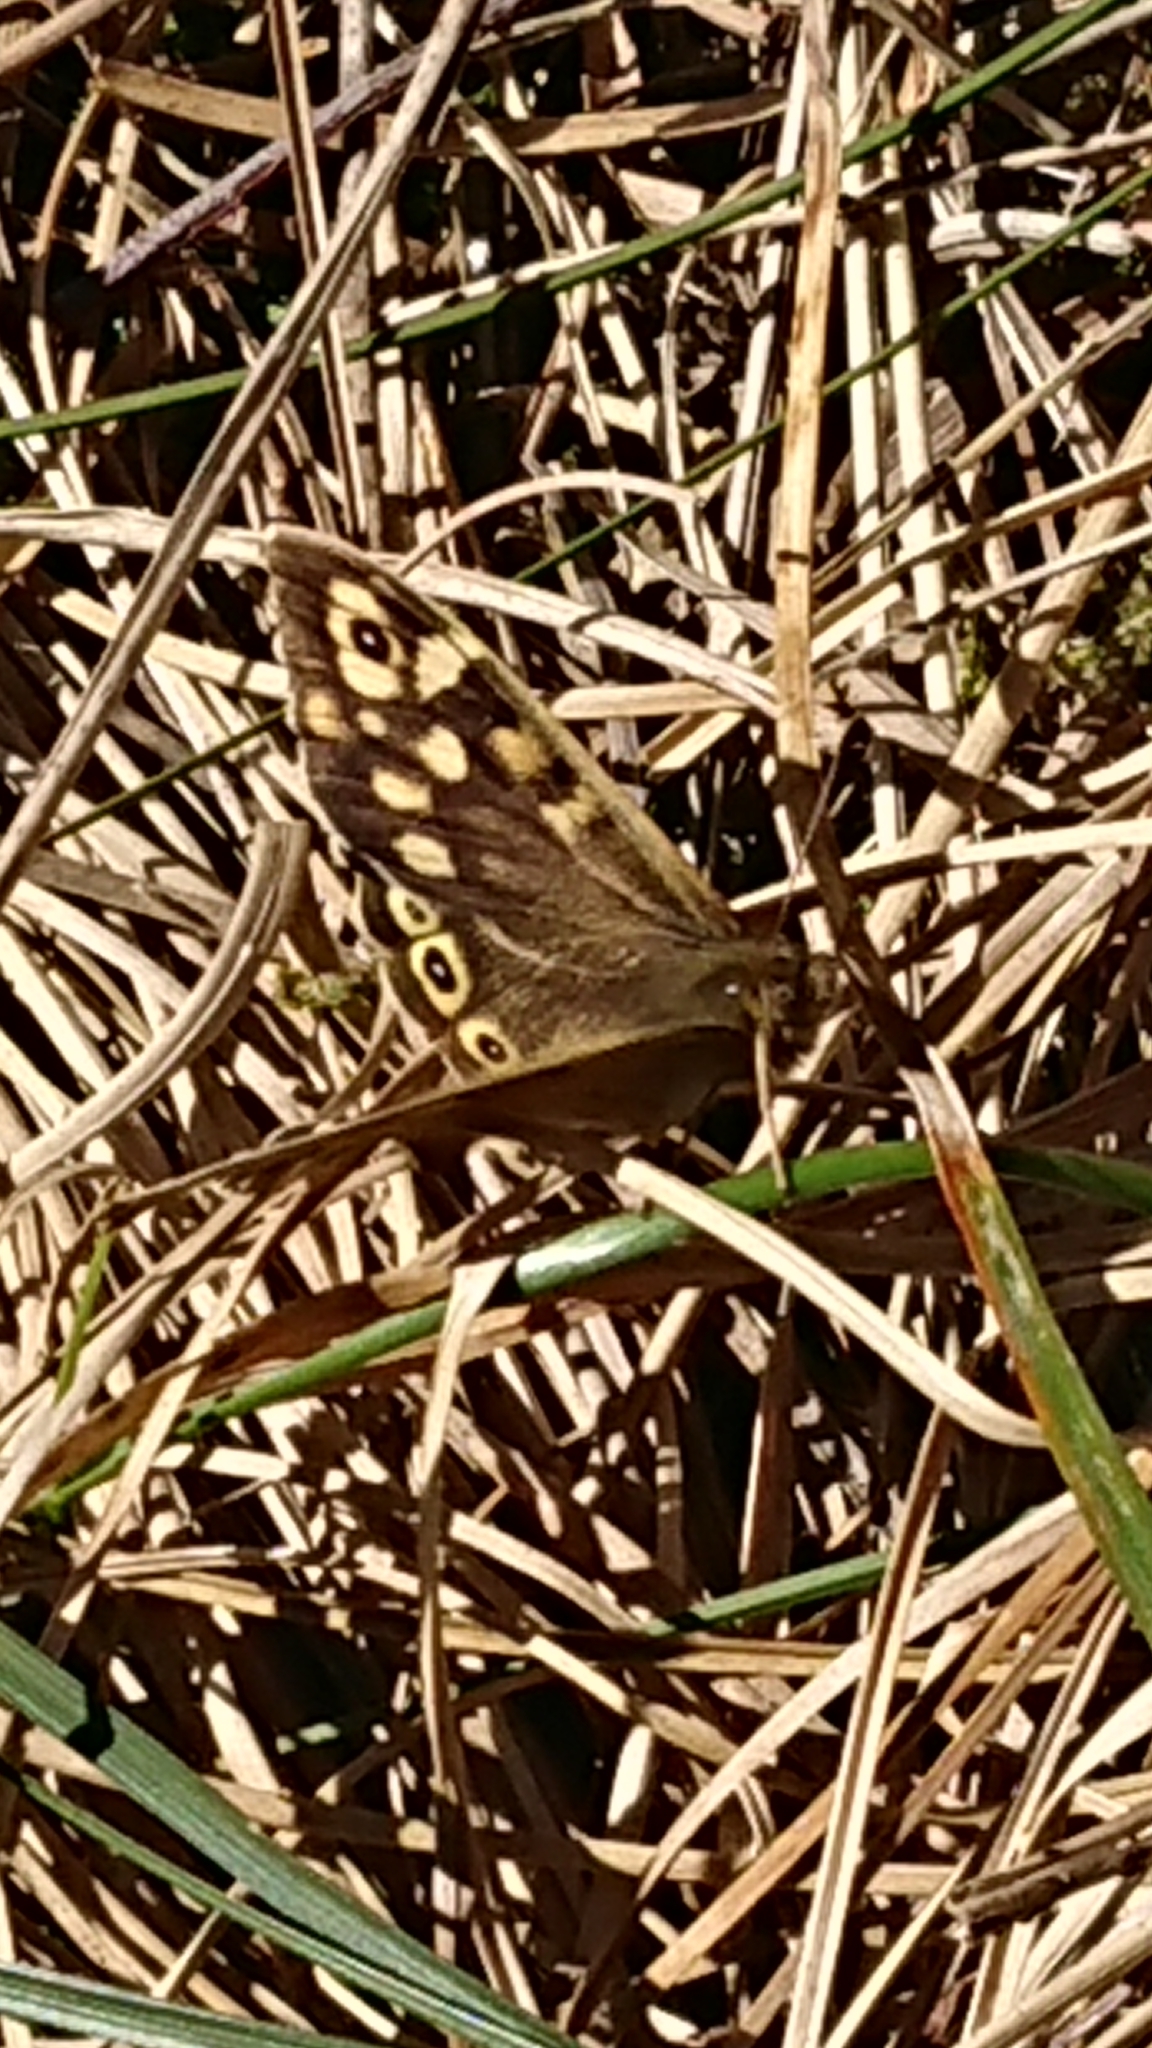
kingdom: Animalia
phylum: Arthropoda
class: Insecta
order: Lepidoptera
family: Nymphalidae
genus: Pararge
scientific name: Pararge aegeria
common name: Speckled wood
